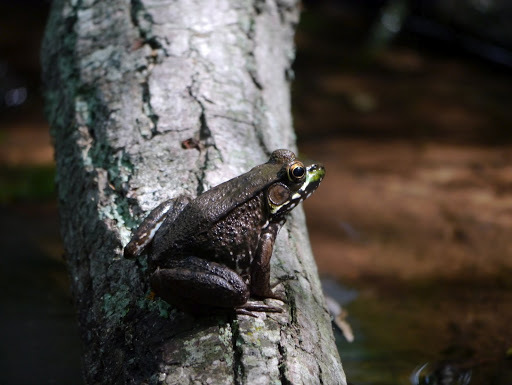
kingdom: Animalia
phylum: Chordata
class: Amphibia
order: Anura
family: Ranidae
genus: Lithobates
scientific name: Lithobates clamitans
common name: Green frog
